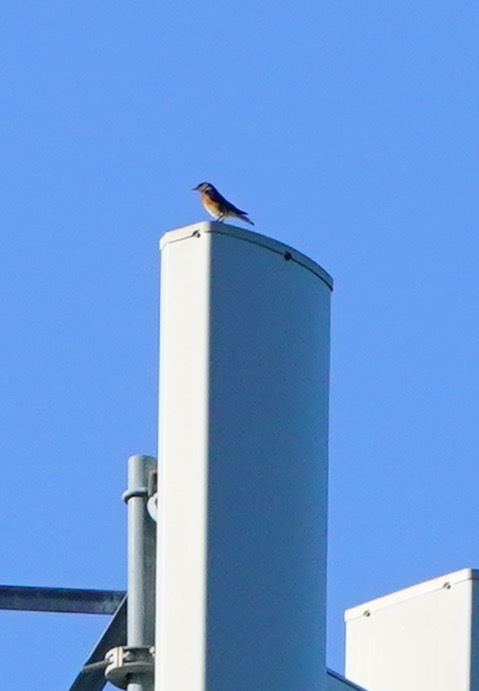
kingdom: Animalia
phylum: Chordata
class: Aves
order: Passeriformes
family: Turdidae
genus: Sialia
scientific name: Sialia mexicana
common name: Western bluebird
